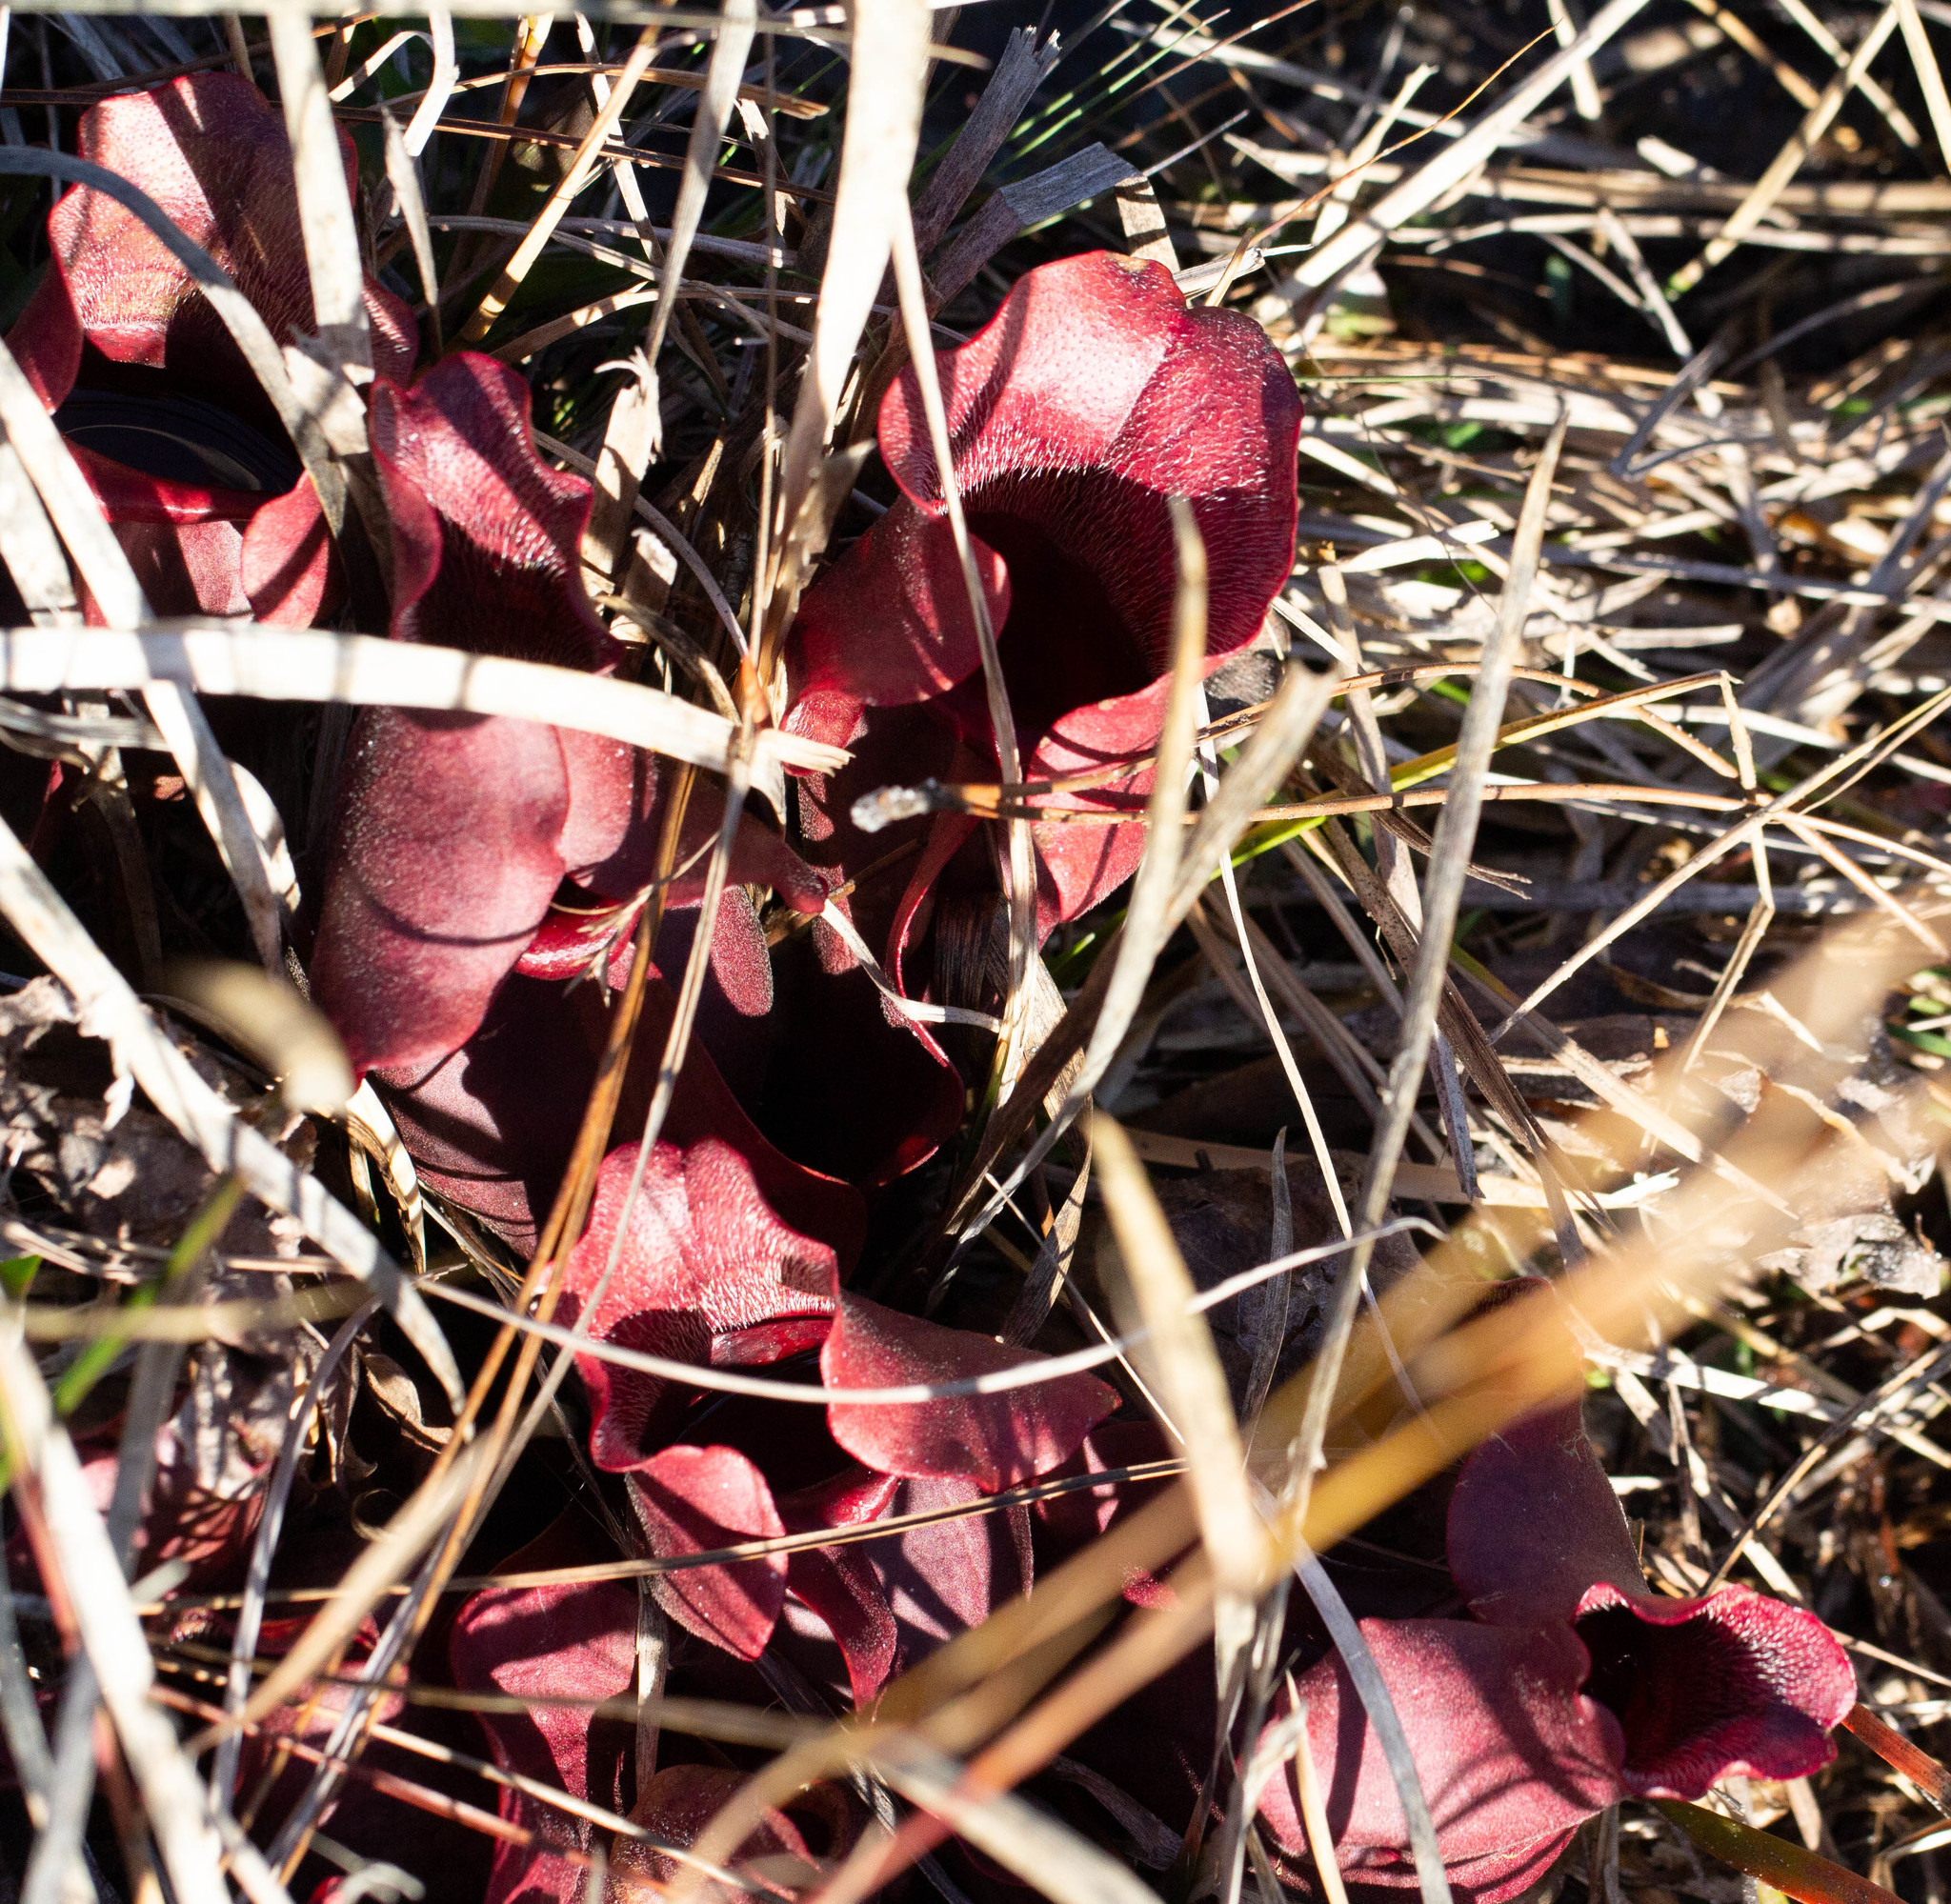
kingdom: Plantae
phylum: Tracheophyta
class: Magnoliopsida
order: Ericales
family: Sarraceniaceae
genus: Sarracenia
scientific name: Sarracenia rosea
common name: Pink pitcherplant
